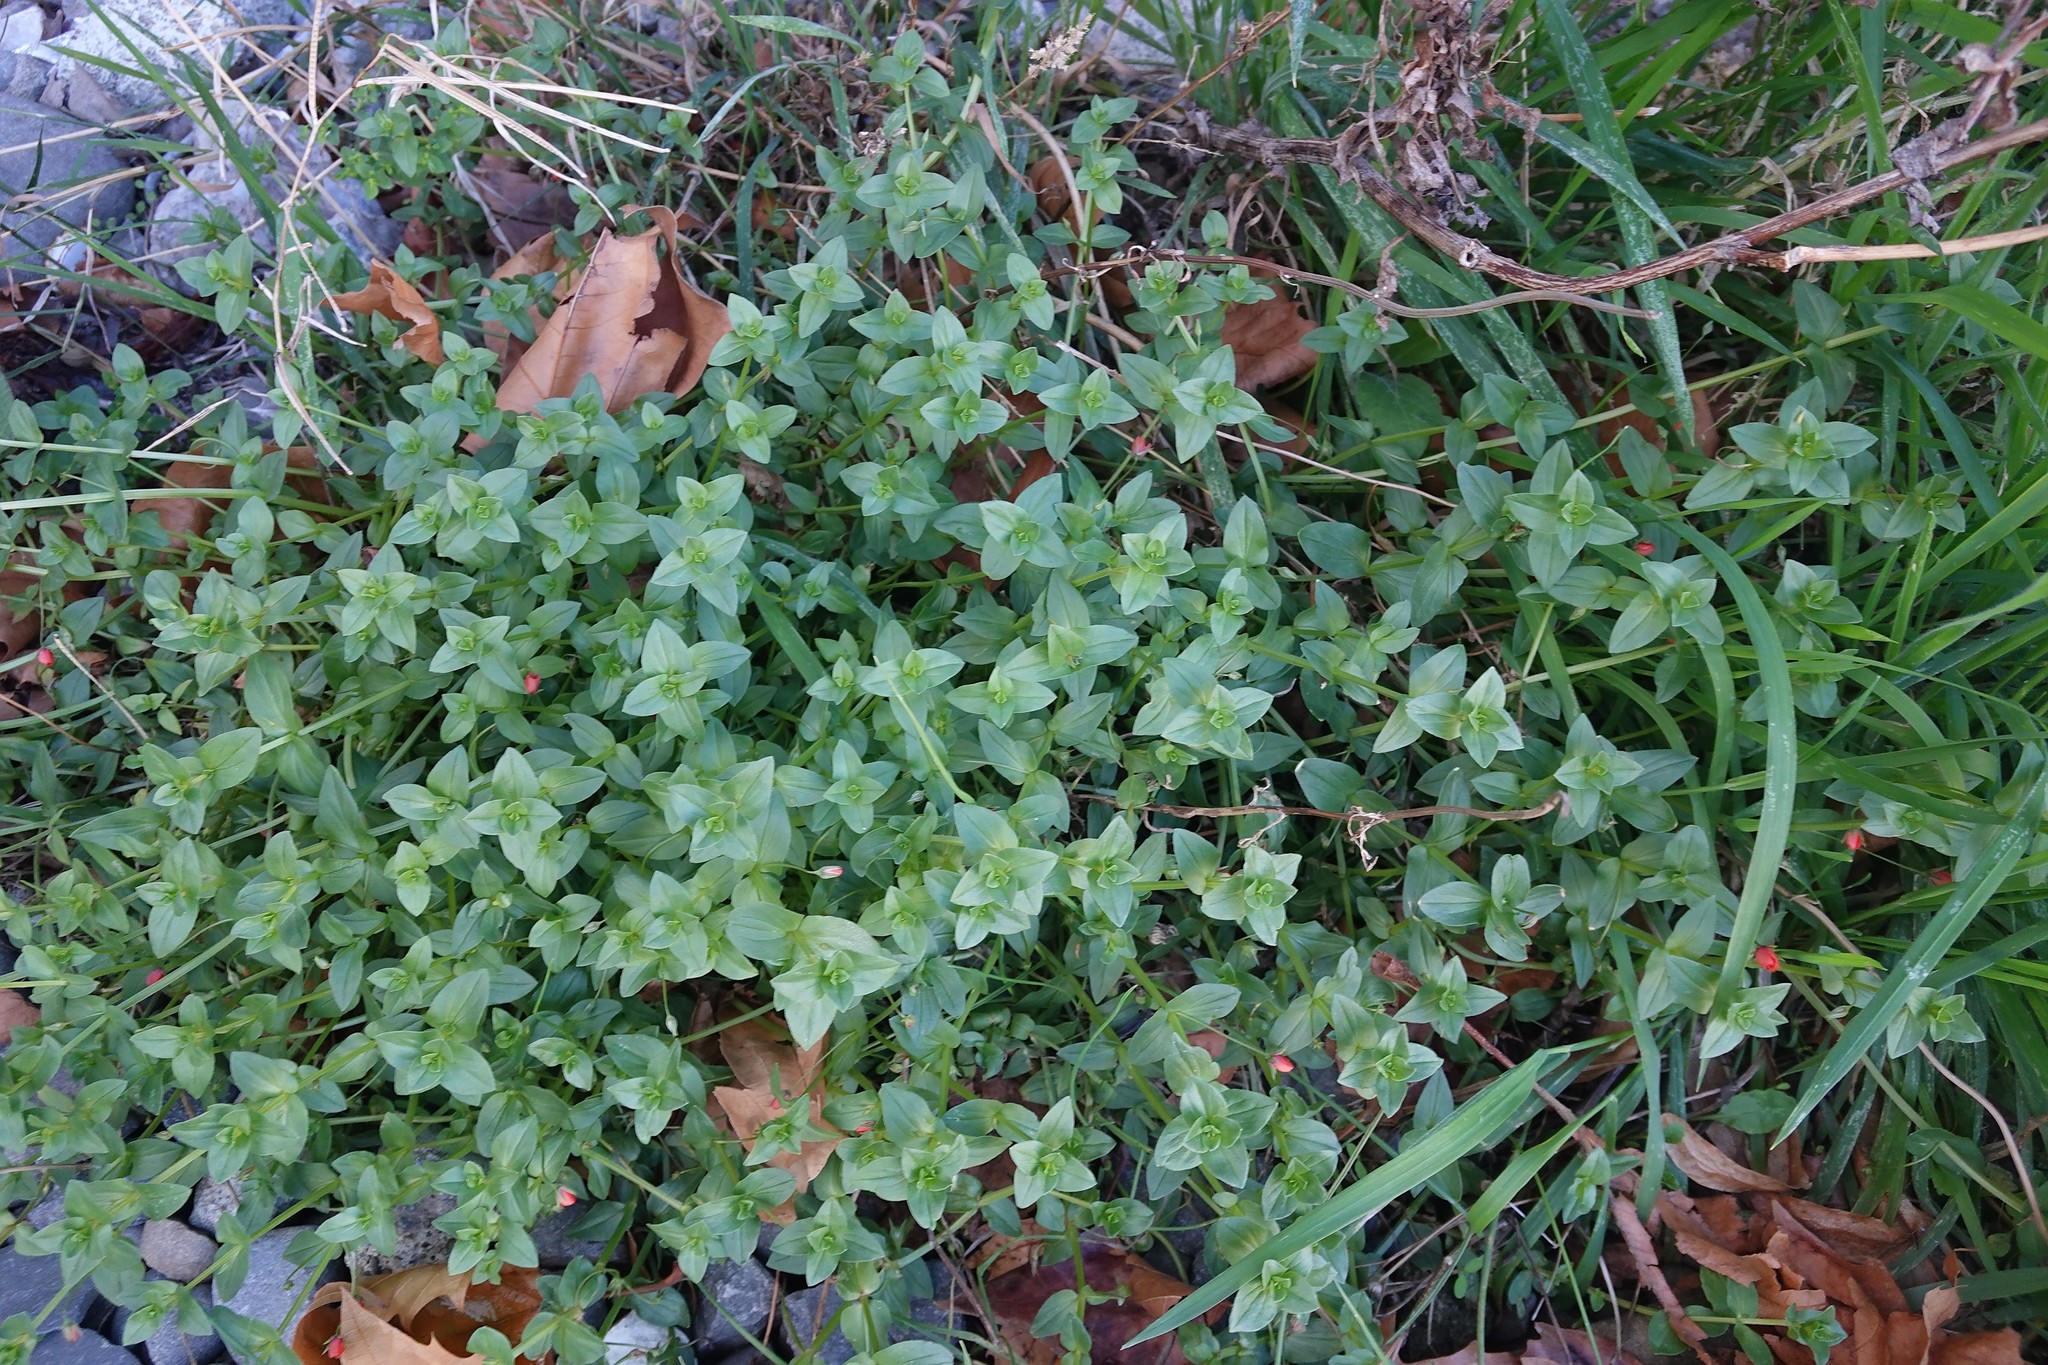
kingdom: Plantae
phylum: Tracheophyta
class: Magnoliopsida
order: Ericales
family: Primulaceae
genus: Lysimachia
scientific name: Lysimachia arvensis
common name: Scarlet pimpernel
